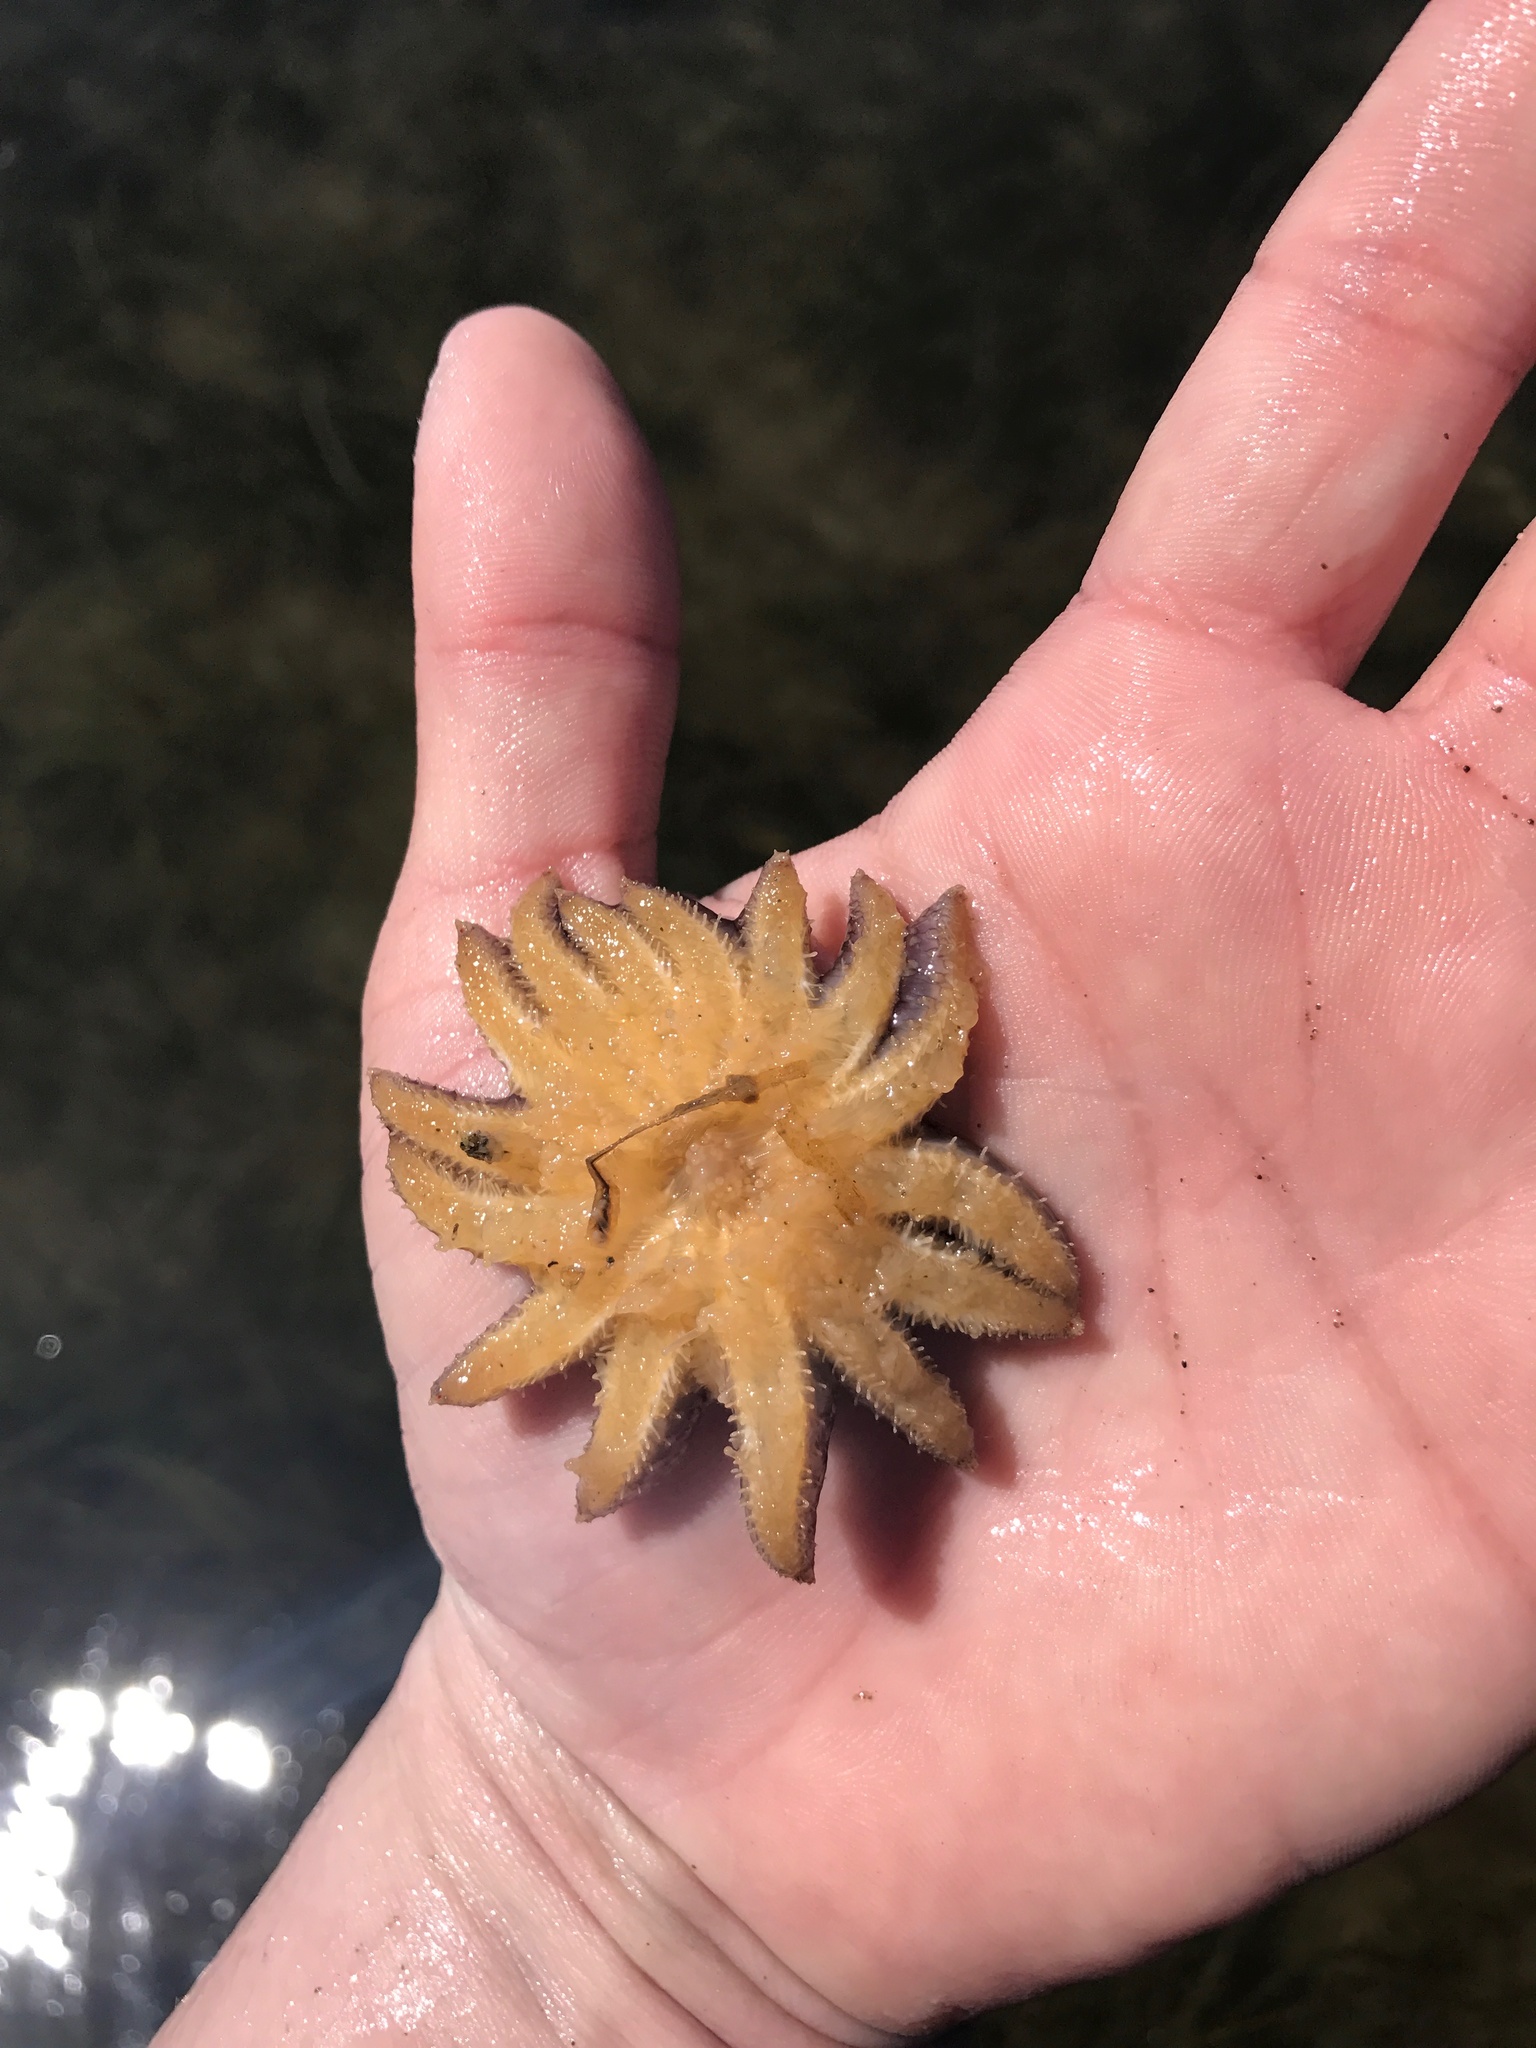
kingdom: Animalia
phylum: Echinodermata
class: Asteroidea
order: Forcipulatida
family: Asteriidae
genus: Pycnopodia
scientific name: Pycnopodia helianthoides
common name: Rag mop
